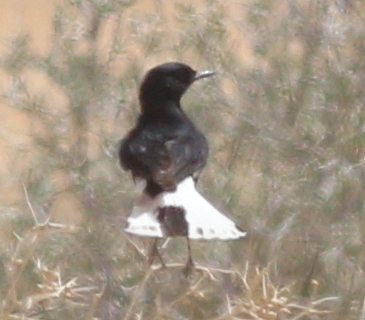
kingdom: Animalia
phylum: Chordata
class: Aves
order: Passeriformes
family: Muscicapidae
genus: Oenanthe
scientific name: Oenanthe leucopyga
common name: White-crowned wheatear
